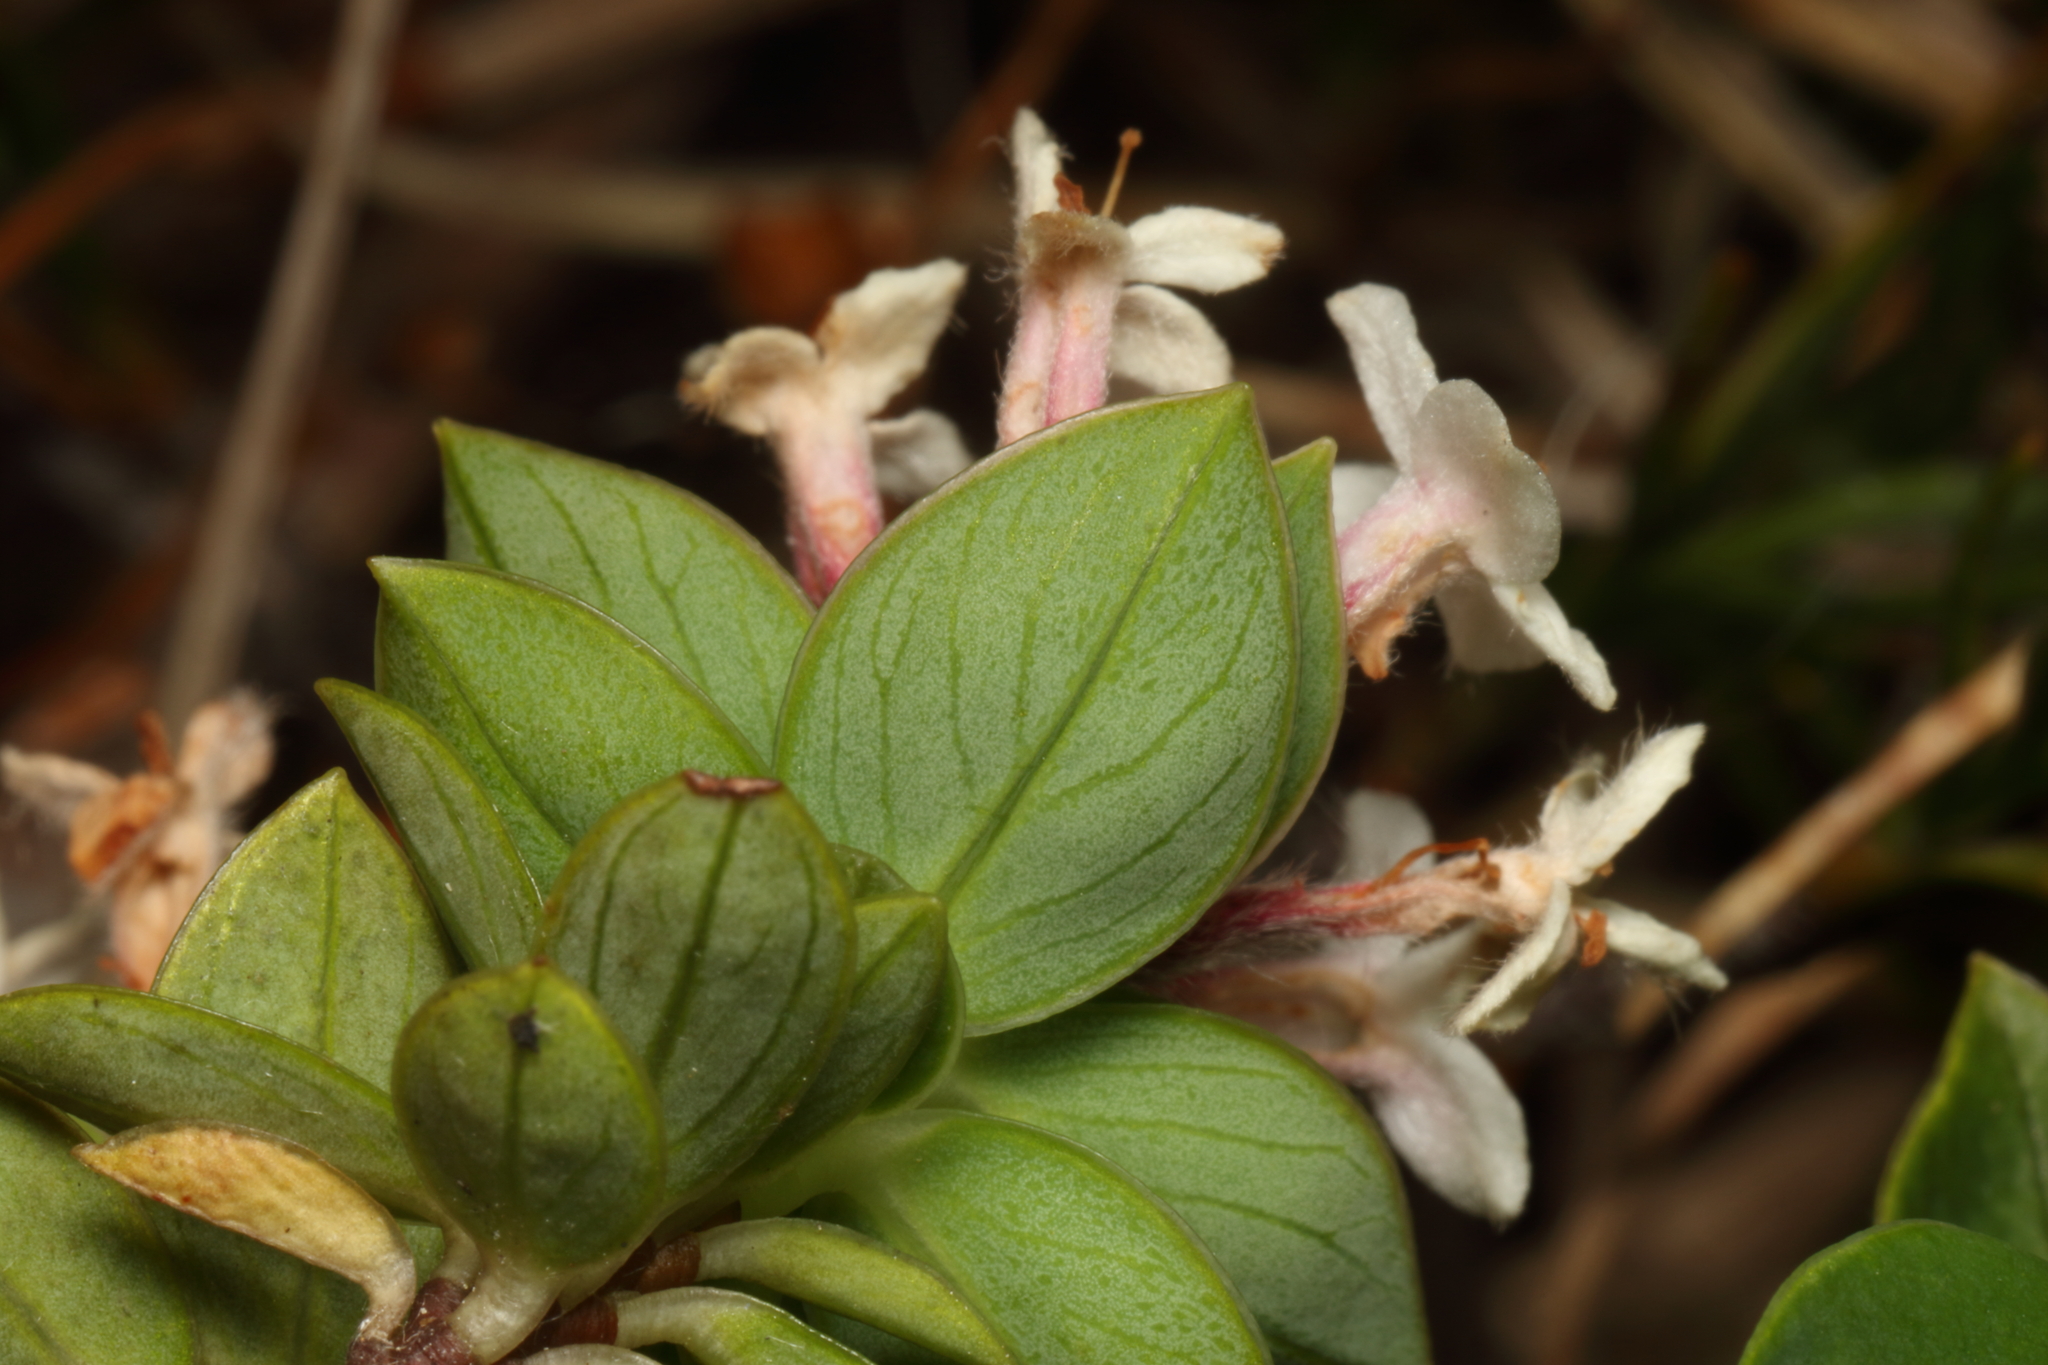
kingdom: Plantae
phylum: Tracheophyta
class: Magnoliopsida
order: Malvales
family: Thymelaeaceae
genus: Pimelea
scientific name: Pimelea gnidia
